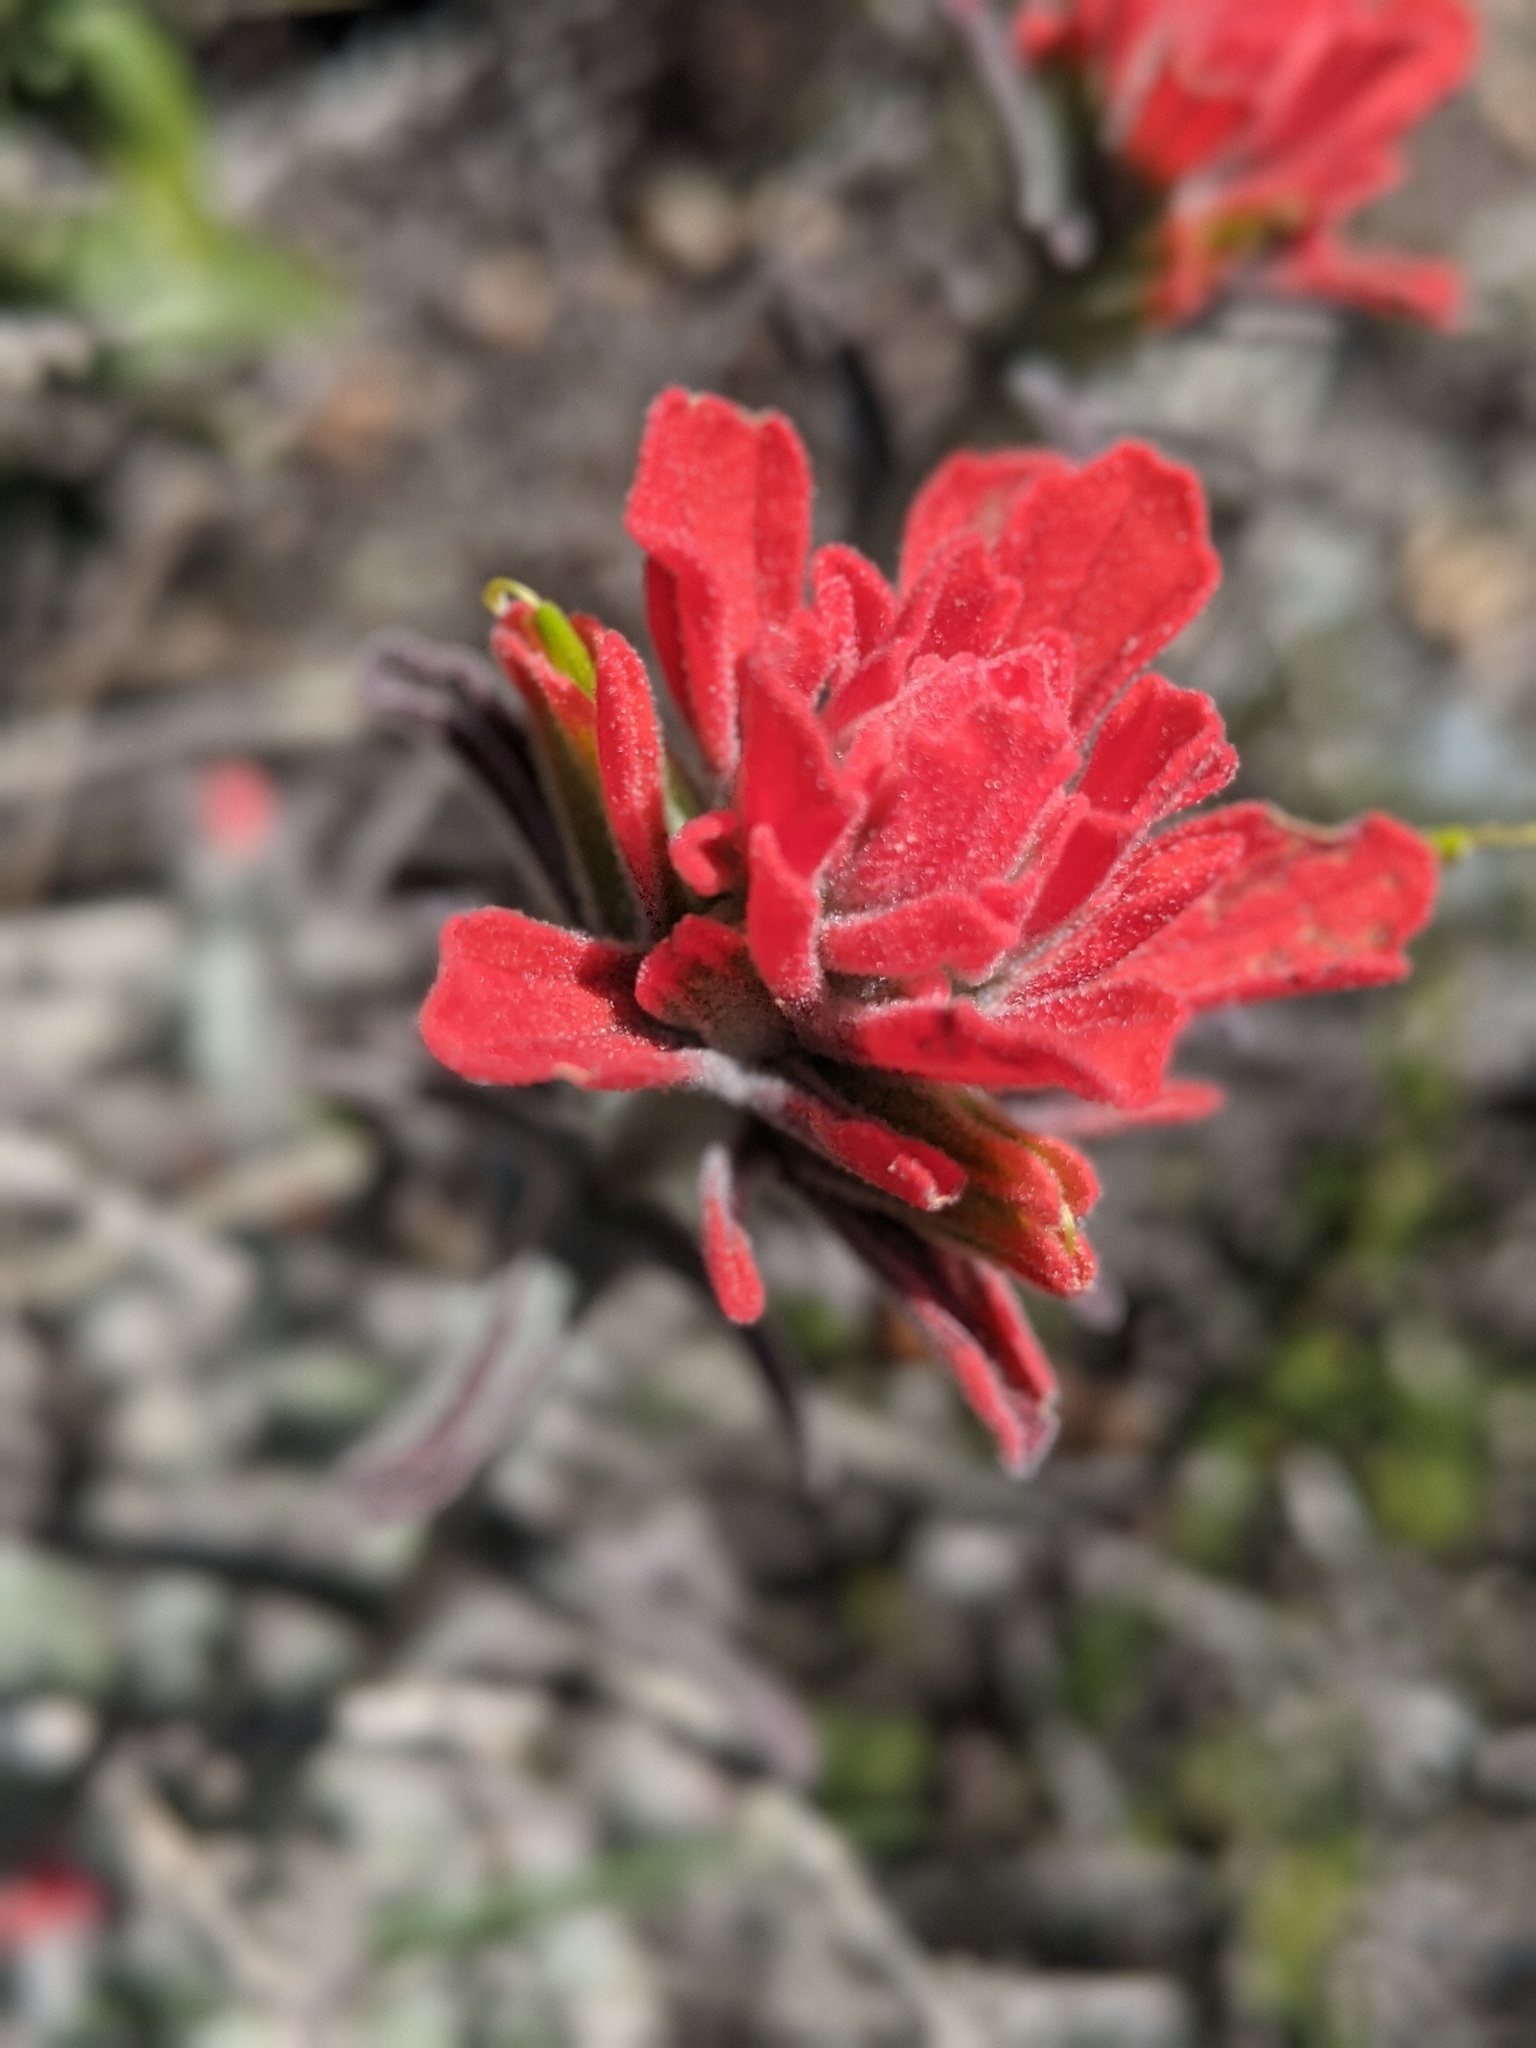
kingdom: Plantae
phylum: Tracheophyta
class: Magnoliopsida
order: Lamiales
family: Orobanchaceae
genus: Castilleja
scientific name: Castilleja foliolosa
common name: Woolly indian paintbrush
